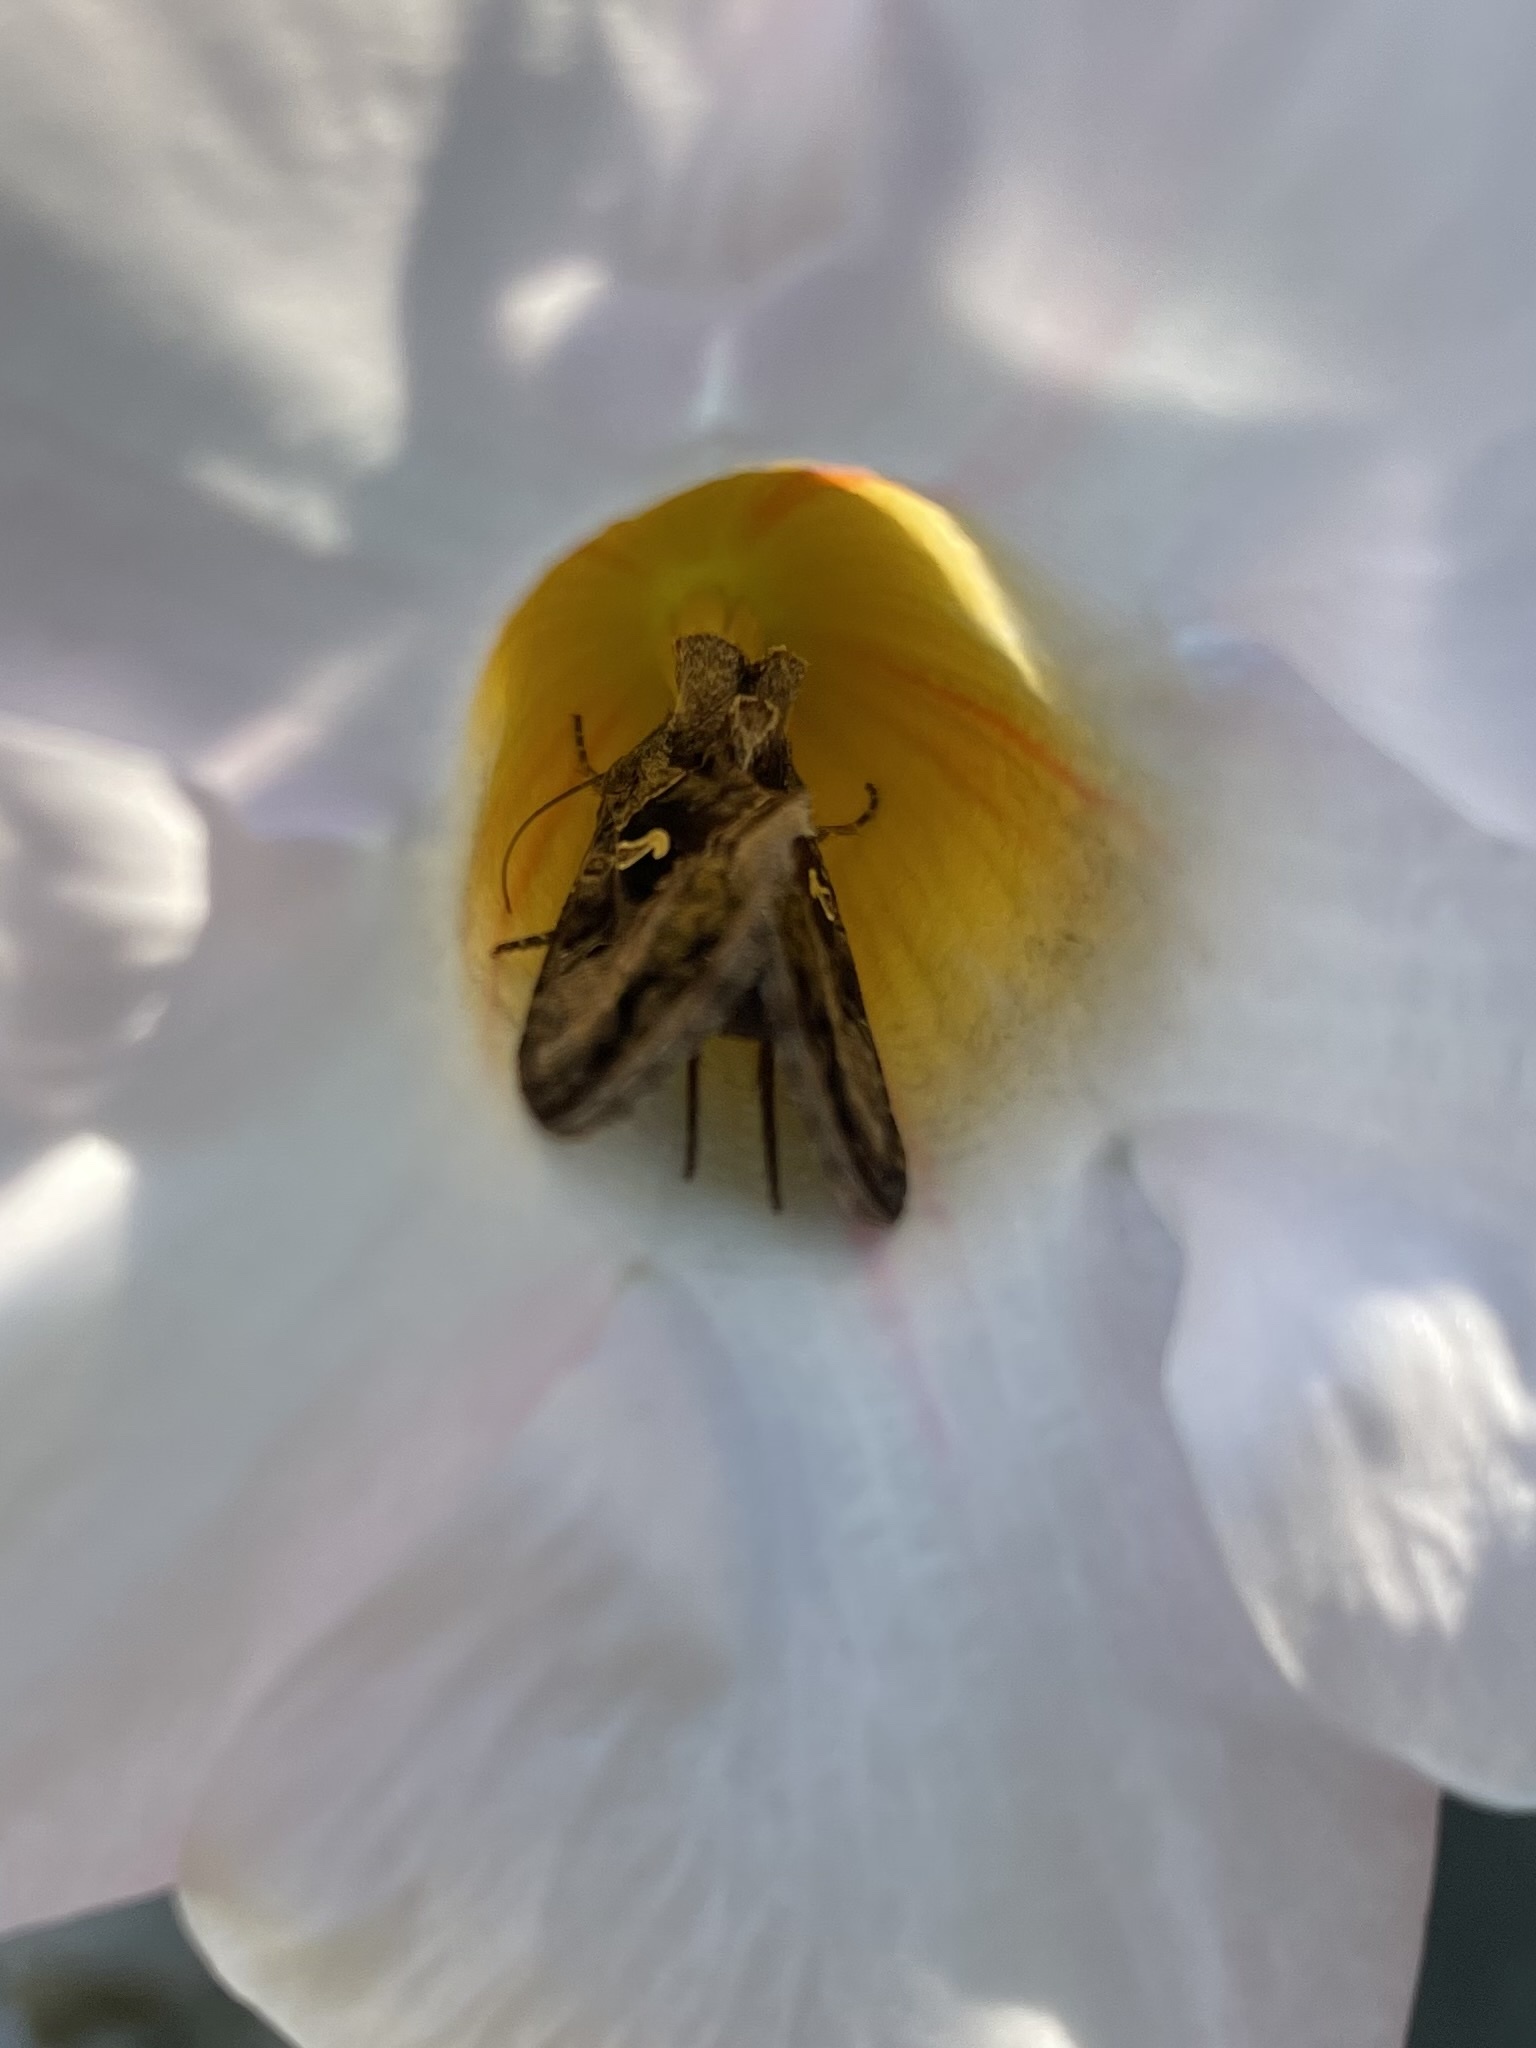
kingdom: Animalia
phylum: Arthropoda
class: Insecta
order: Lepidoptera
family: Noctuidae
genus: Autographa
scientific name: Autographa gamma
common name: Silver y
